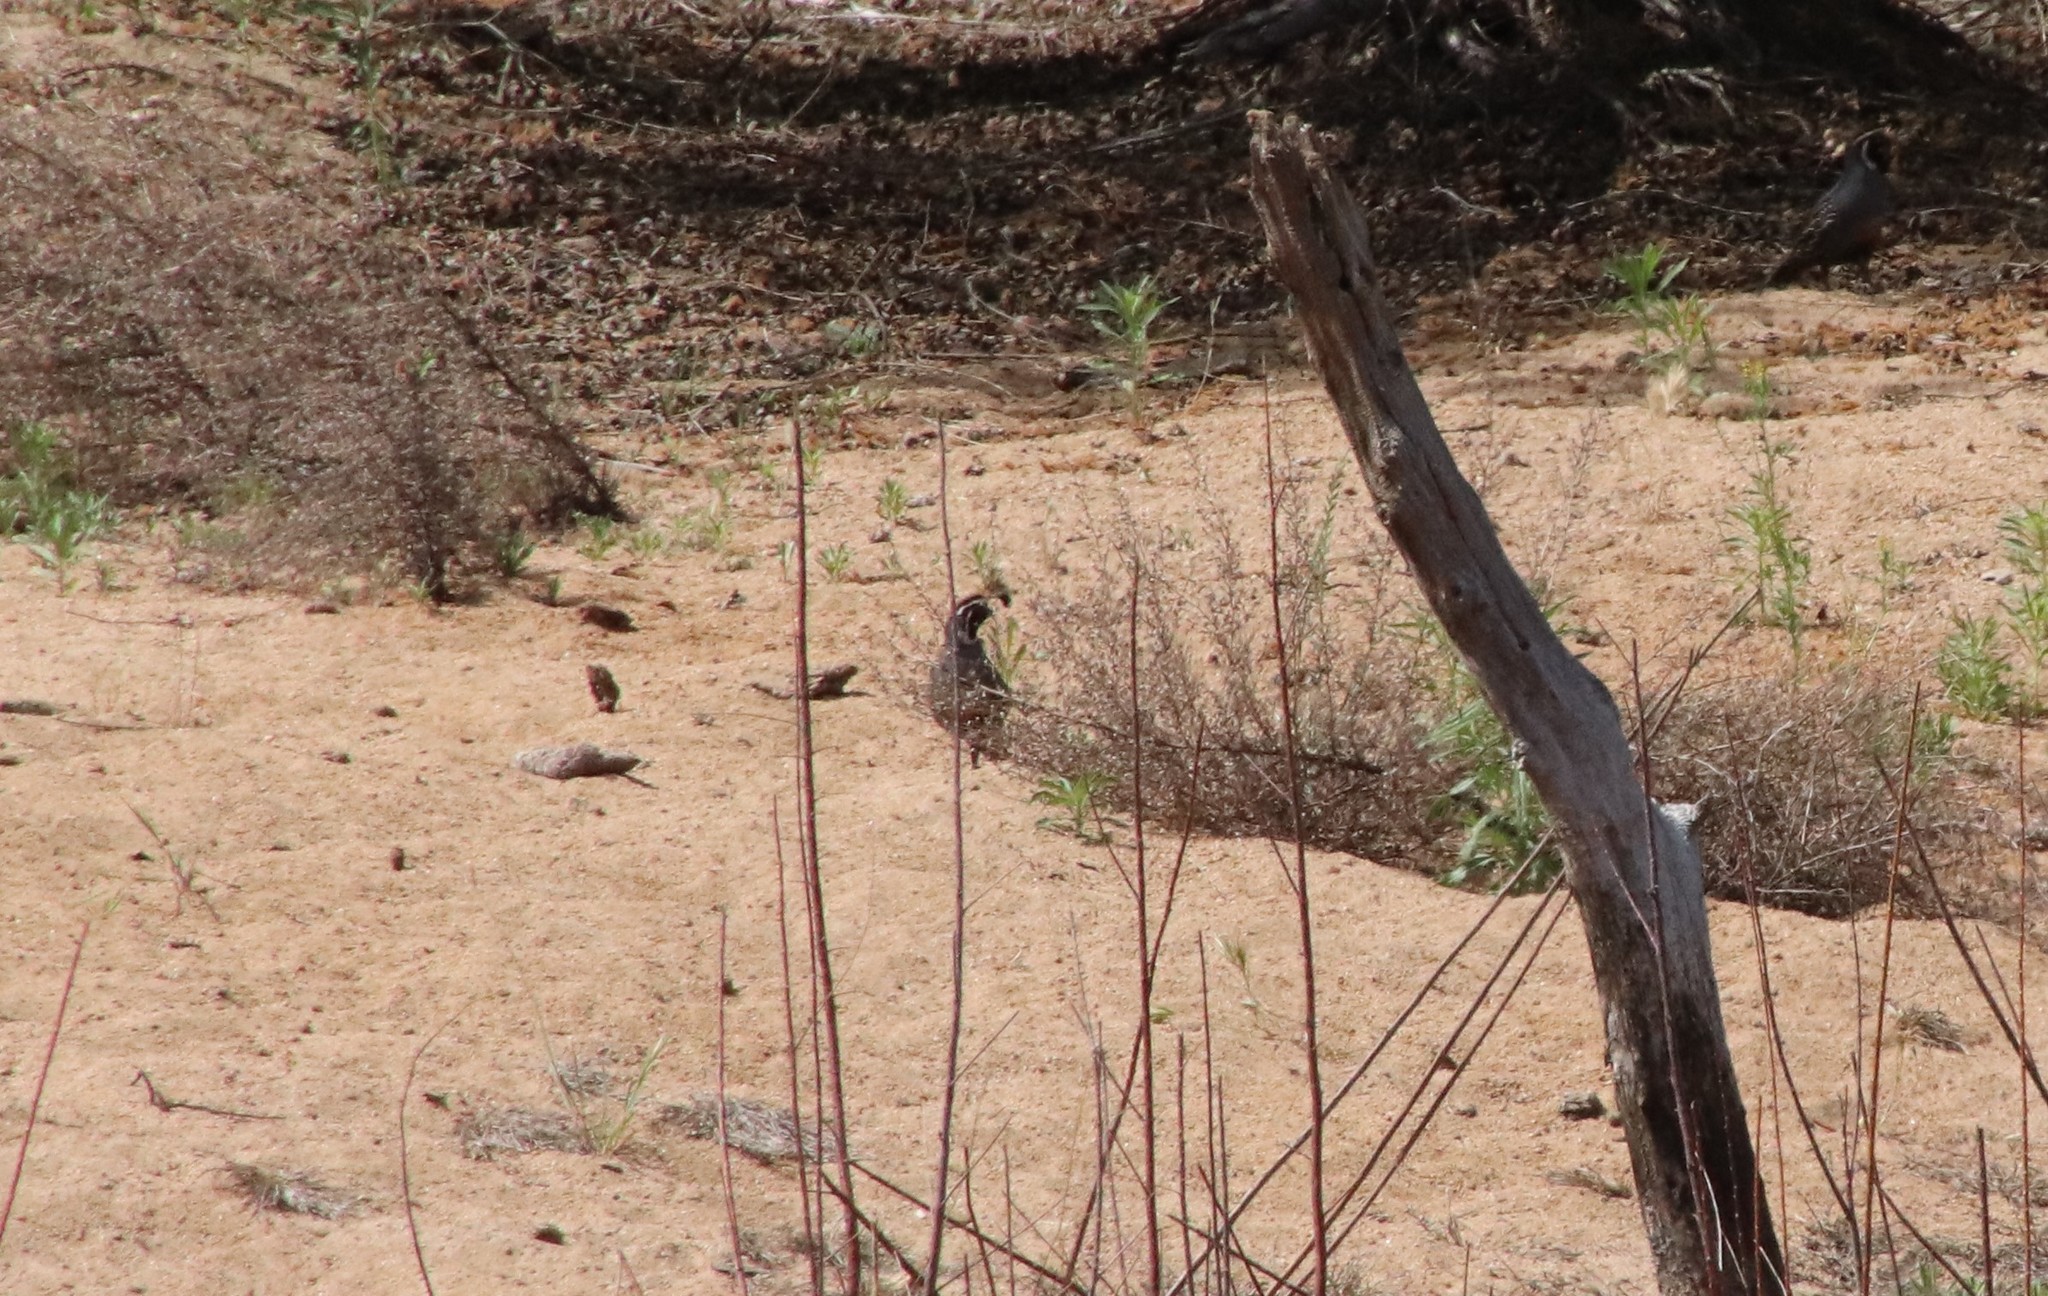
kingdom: Animalia
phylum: Chordata
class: Aves
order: Galliformes
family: Odontophoridae
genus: Callipepla
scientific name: Callipepla californica
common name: California quail
